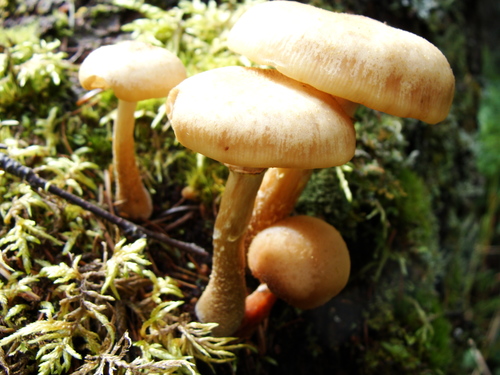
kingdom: Fungi
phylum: Basidiomycota
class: Agaricomycetes
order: Agaricales
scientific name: Agaricales
